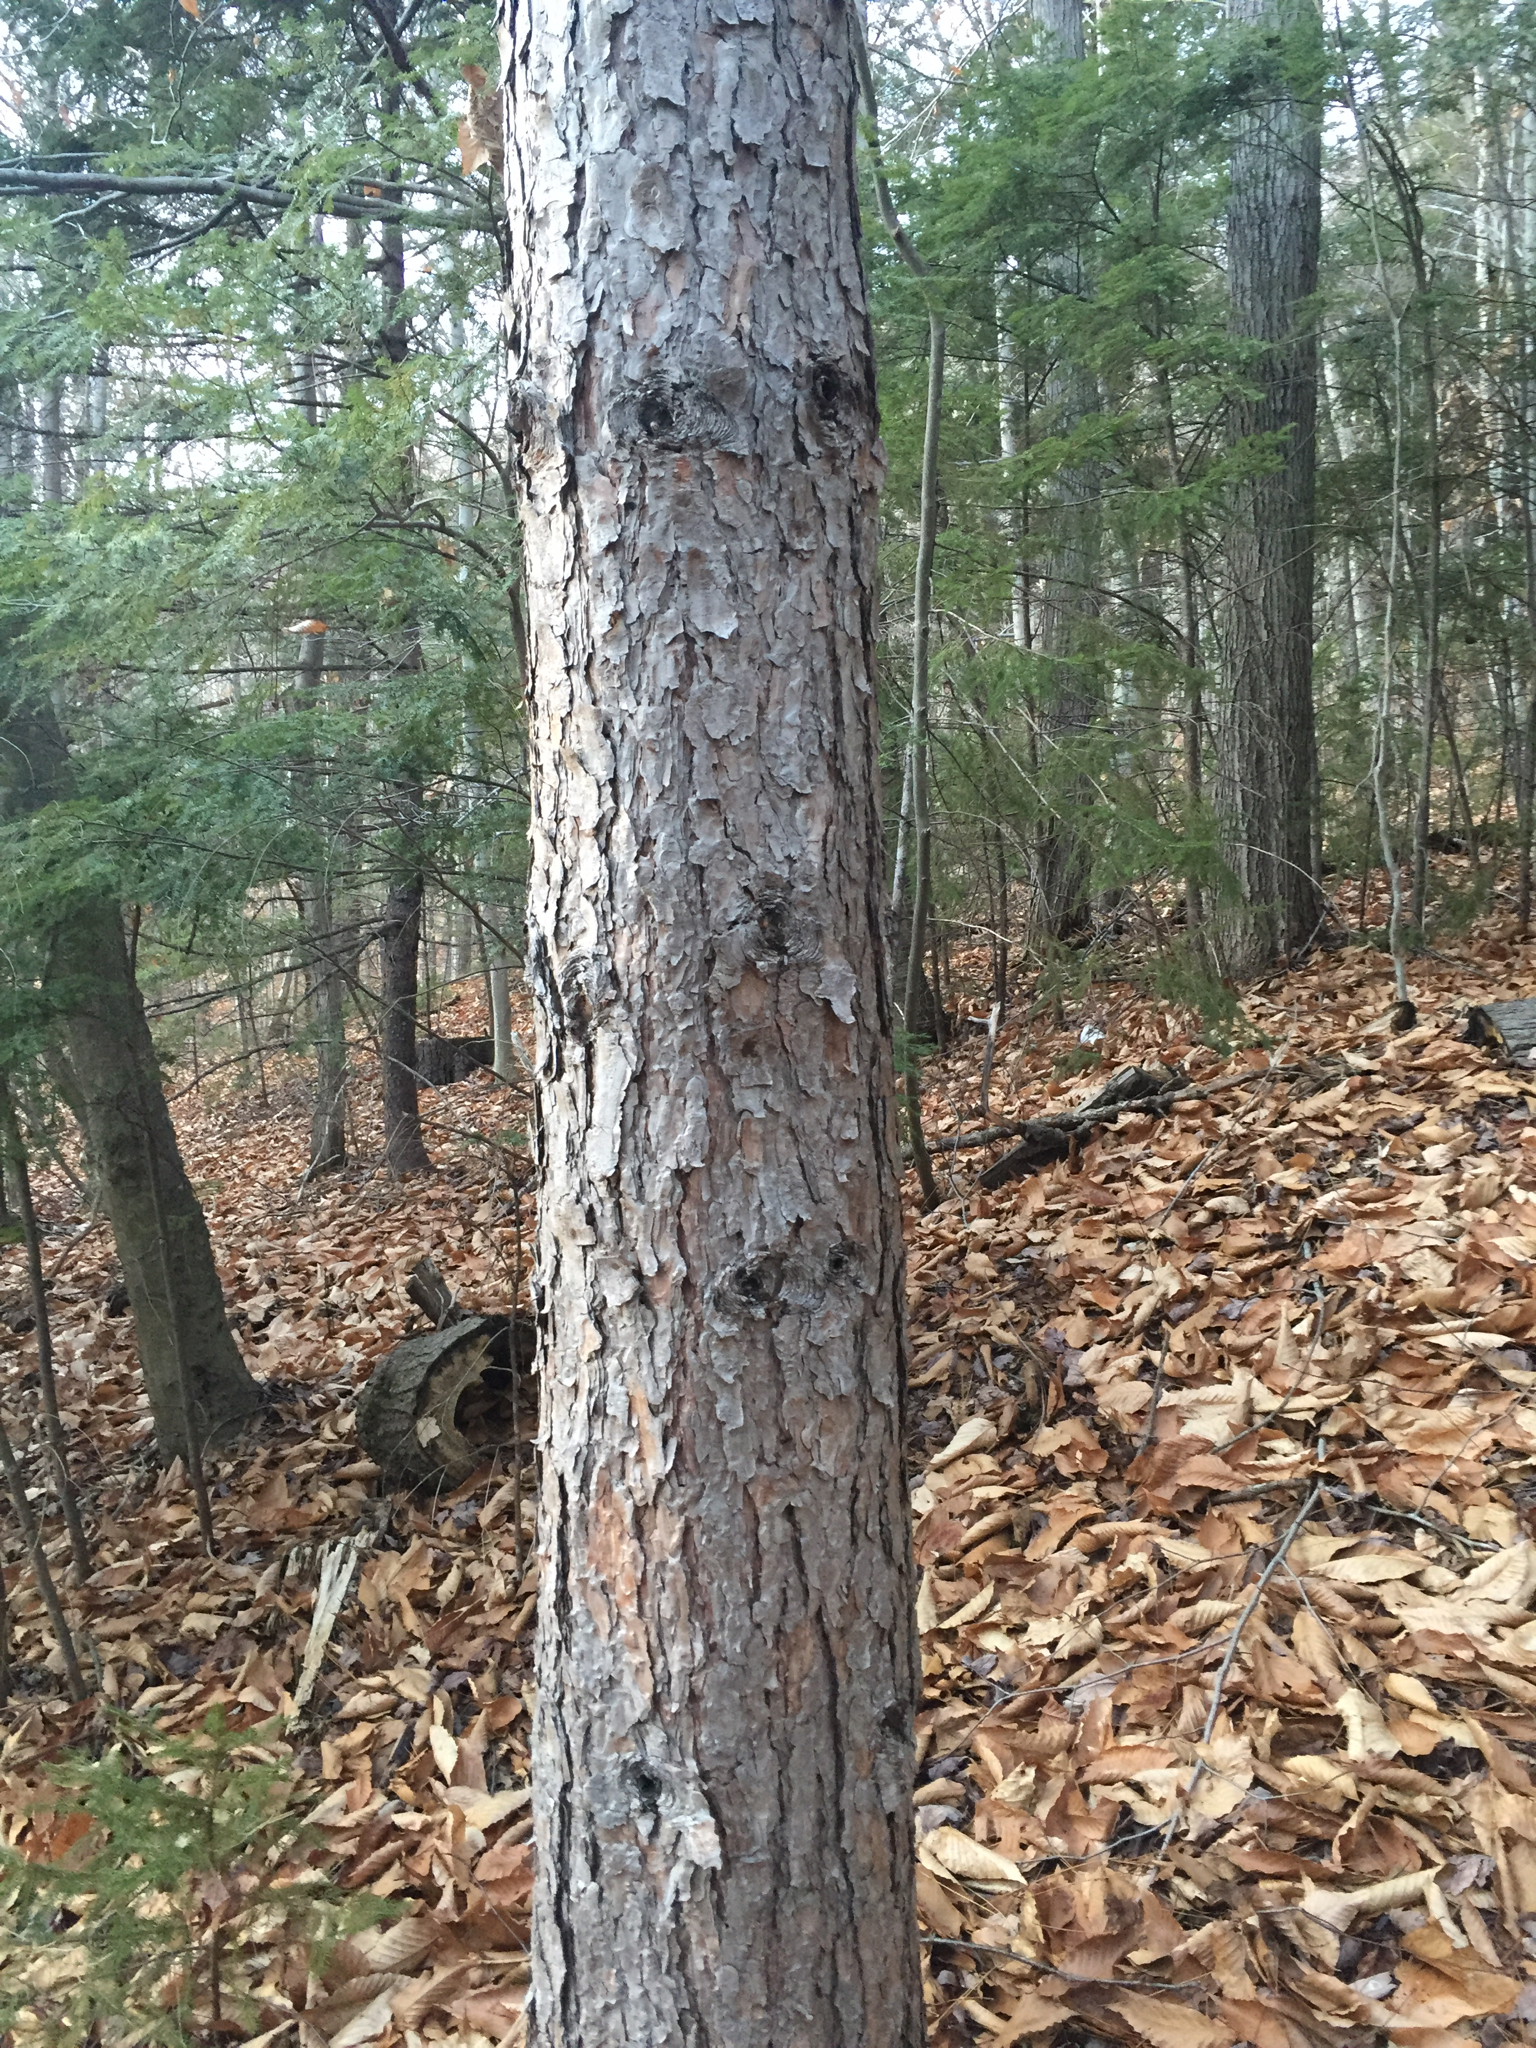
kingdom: Plantae
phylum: Tracheophyta
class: Pinopsida
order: Pinales
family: Pinaceae
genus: Pinus
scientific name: Pinus resinosa
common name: Norway pine
